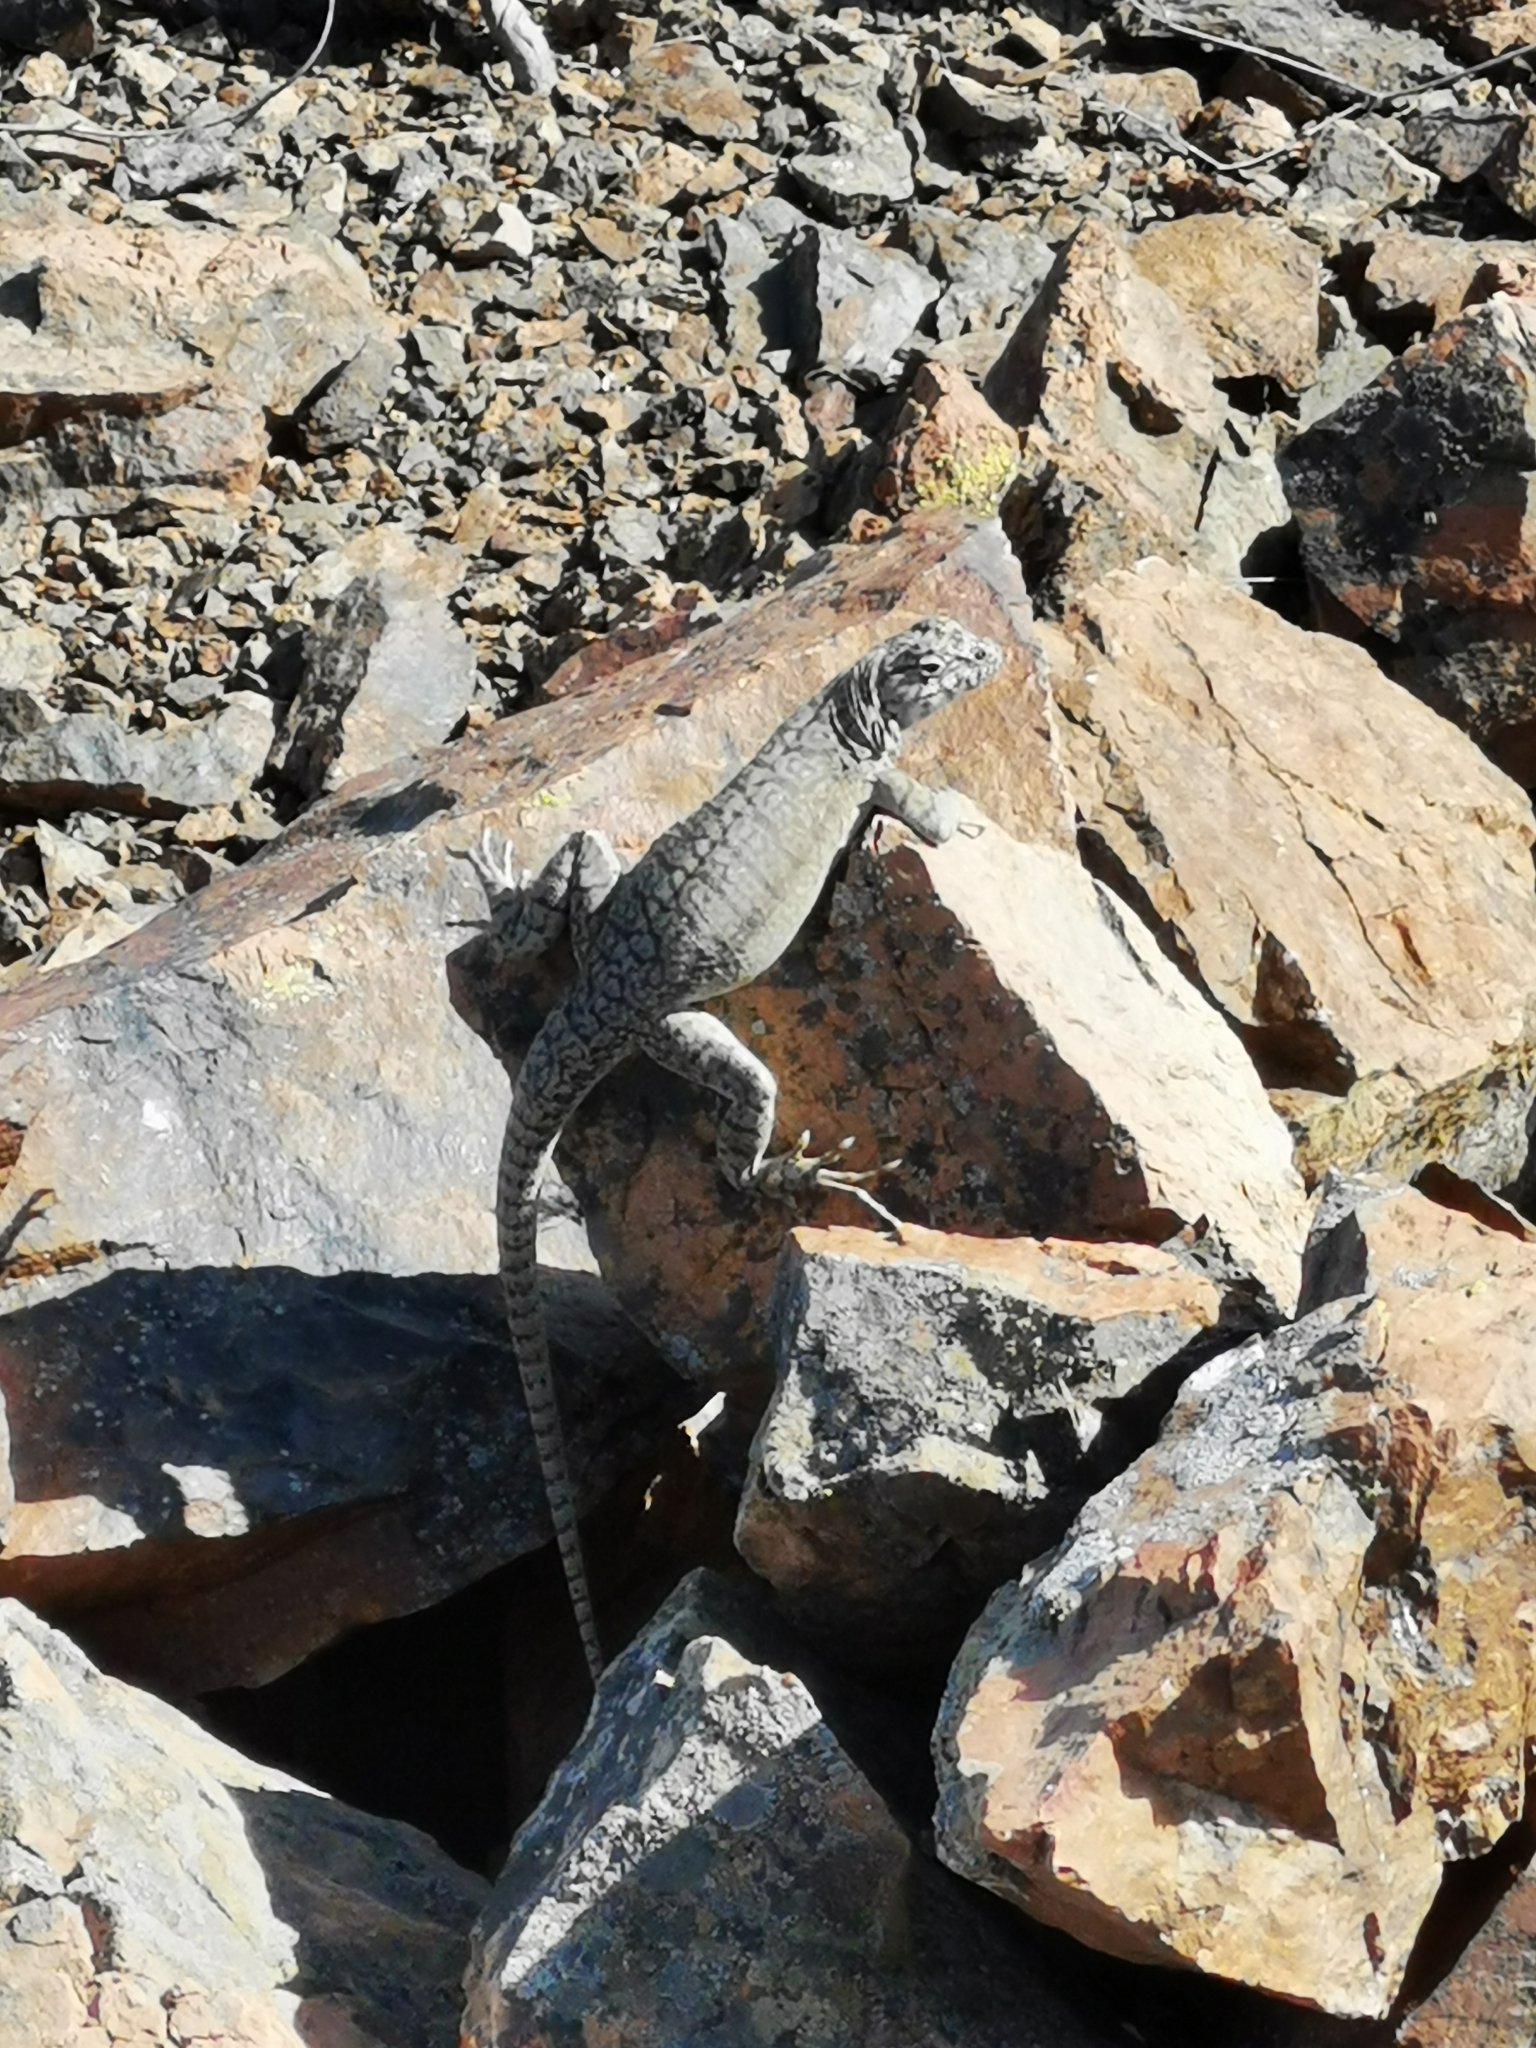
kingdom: Animalia
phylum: Chordata
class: Squamata
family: Tropiduridae
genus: Microlophus
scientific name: Microlophus tarapacensis
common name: Tarapaca pacific iguana
